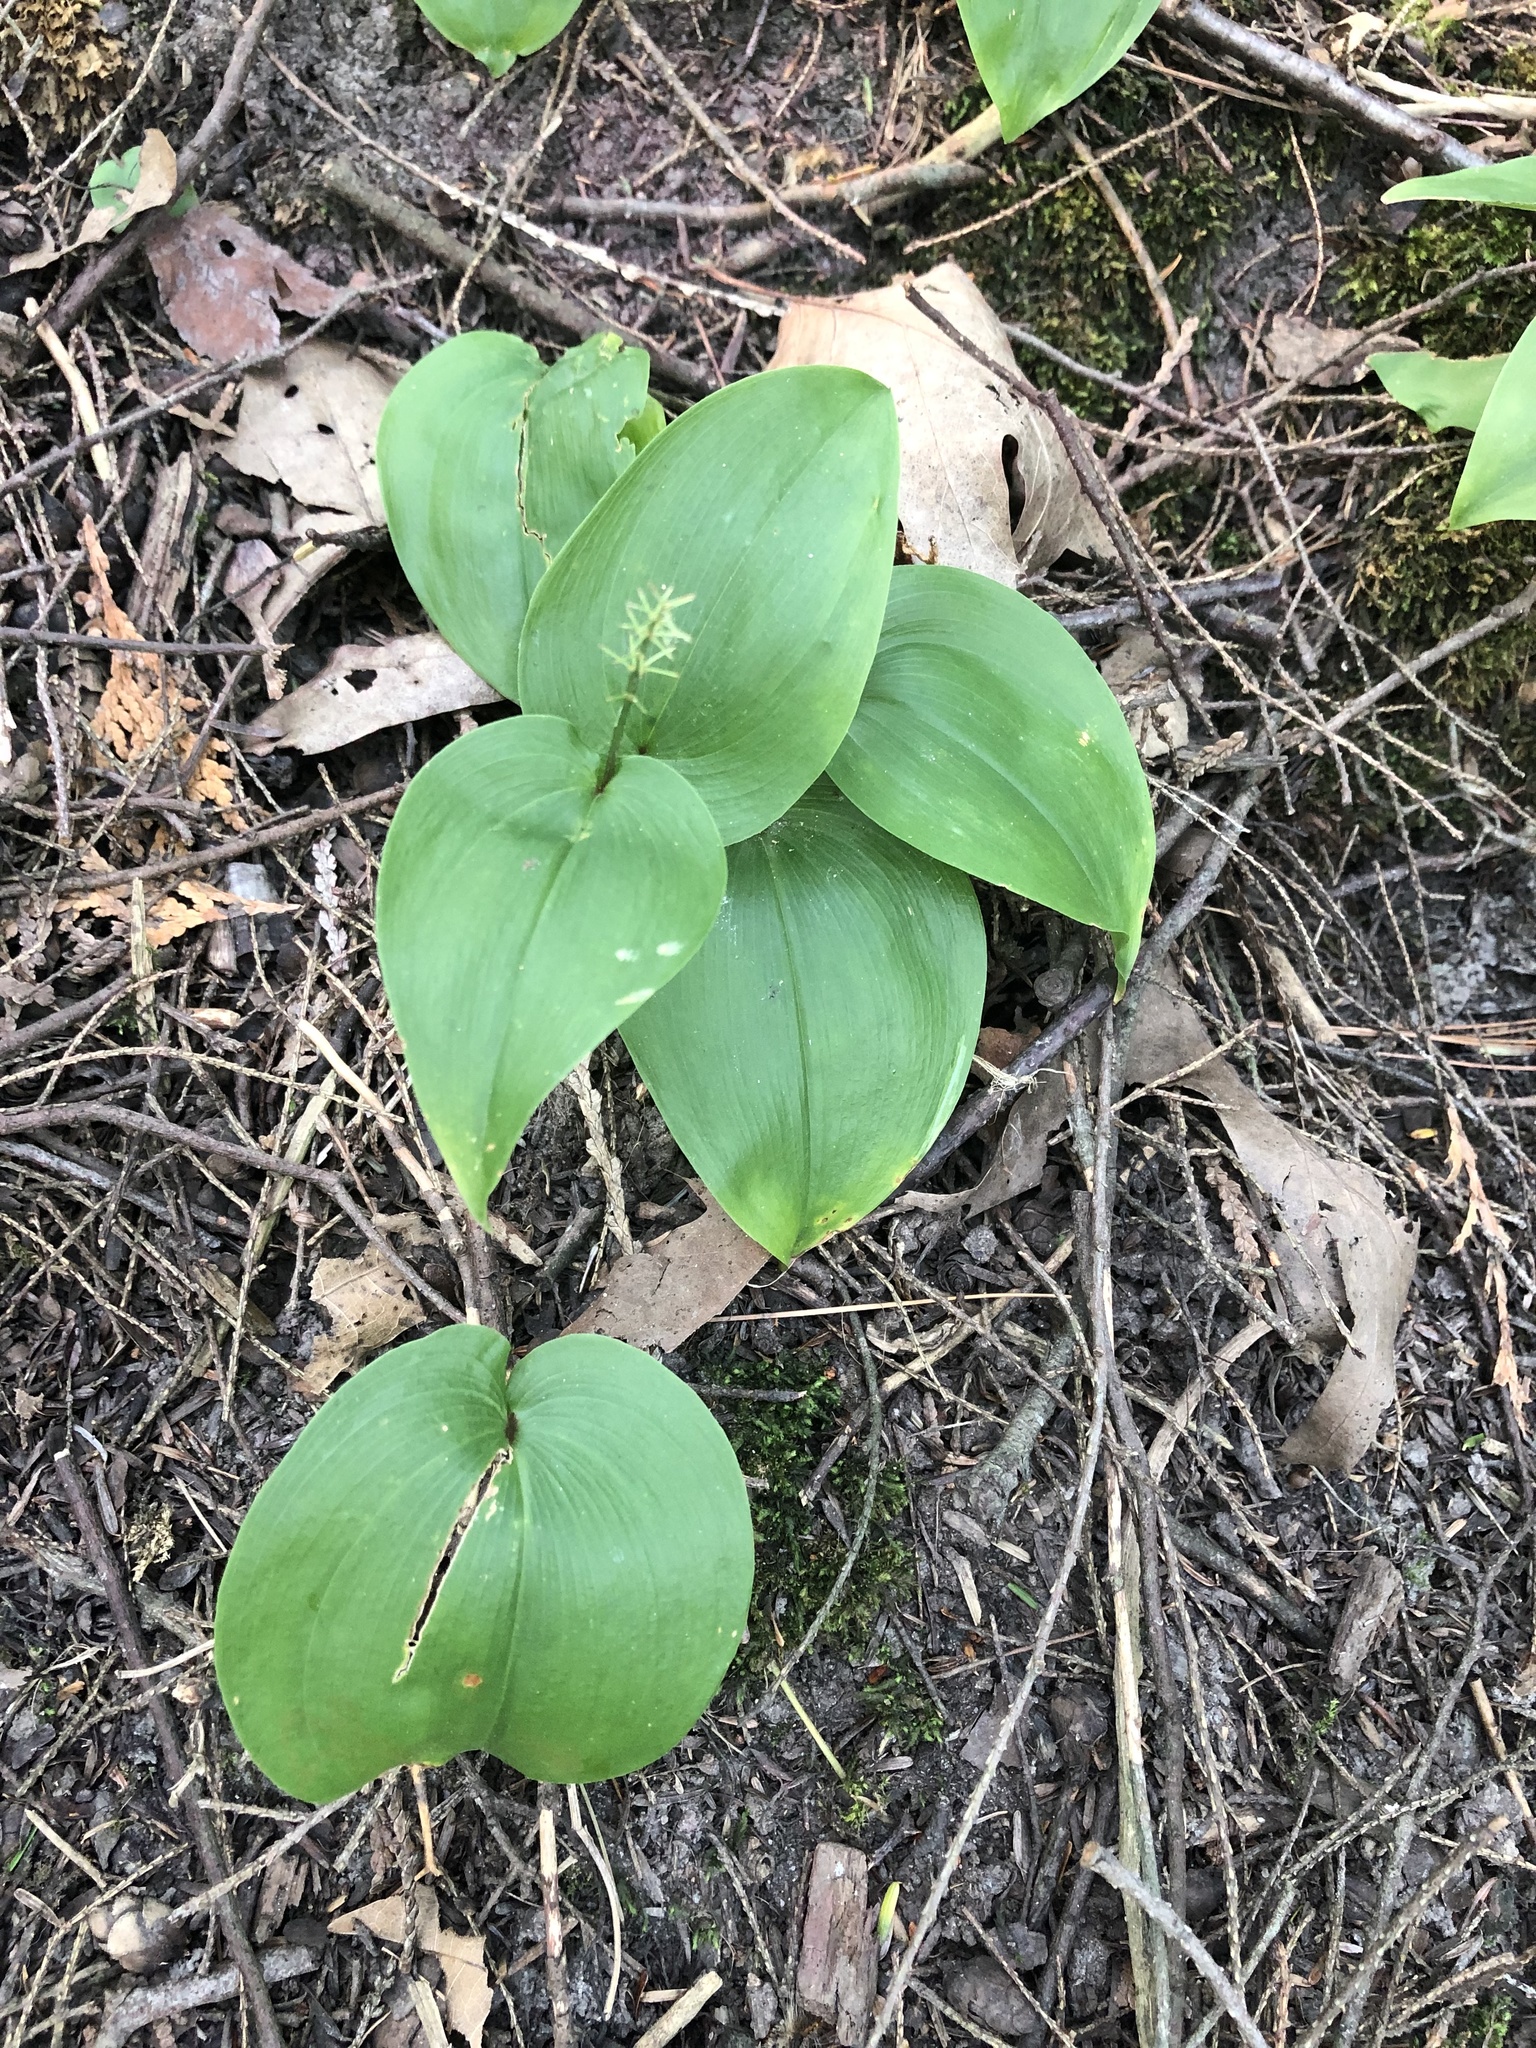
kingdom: Plantae
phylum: Tracheophyta
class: Liliopsida
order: Asparagales
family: Asparagaceae
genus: Maianthemum
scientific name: Maianthemum canadense
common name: False lily-of-the-valley
